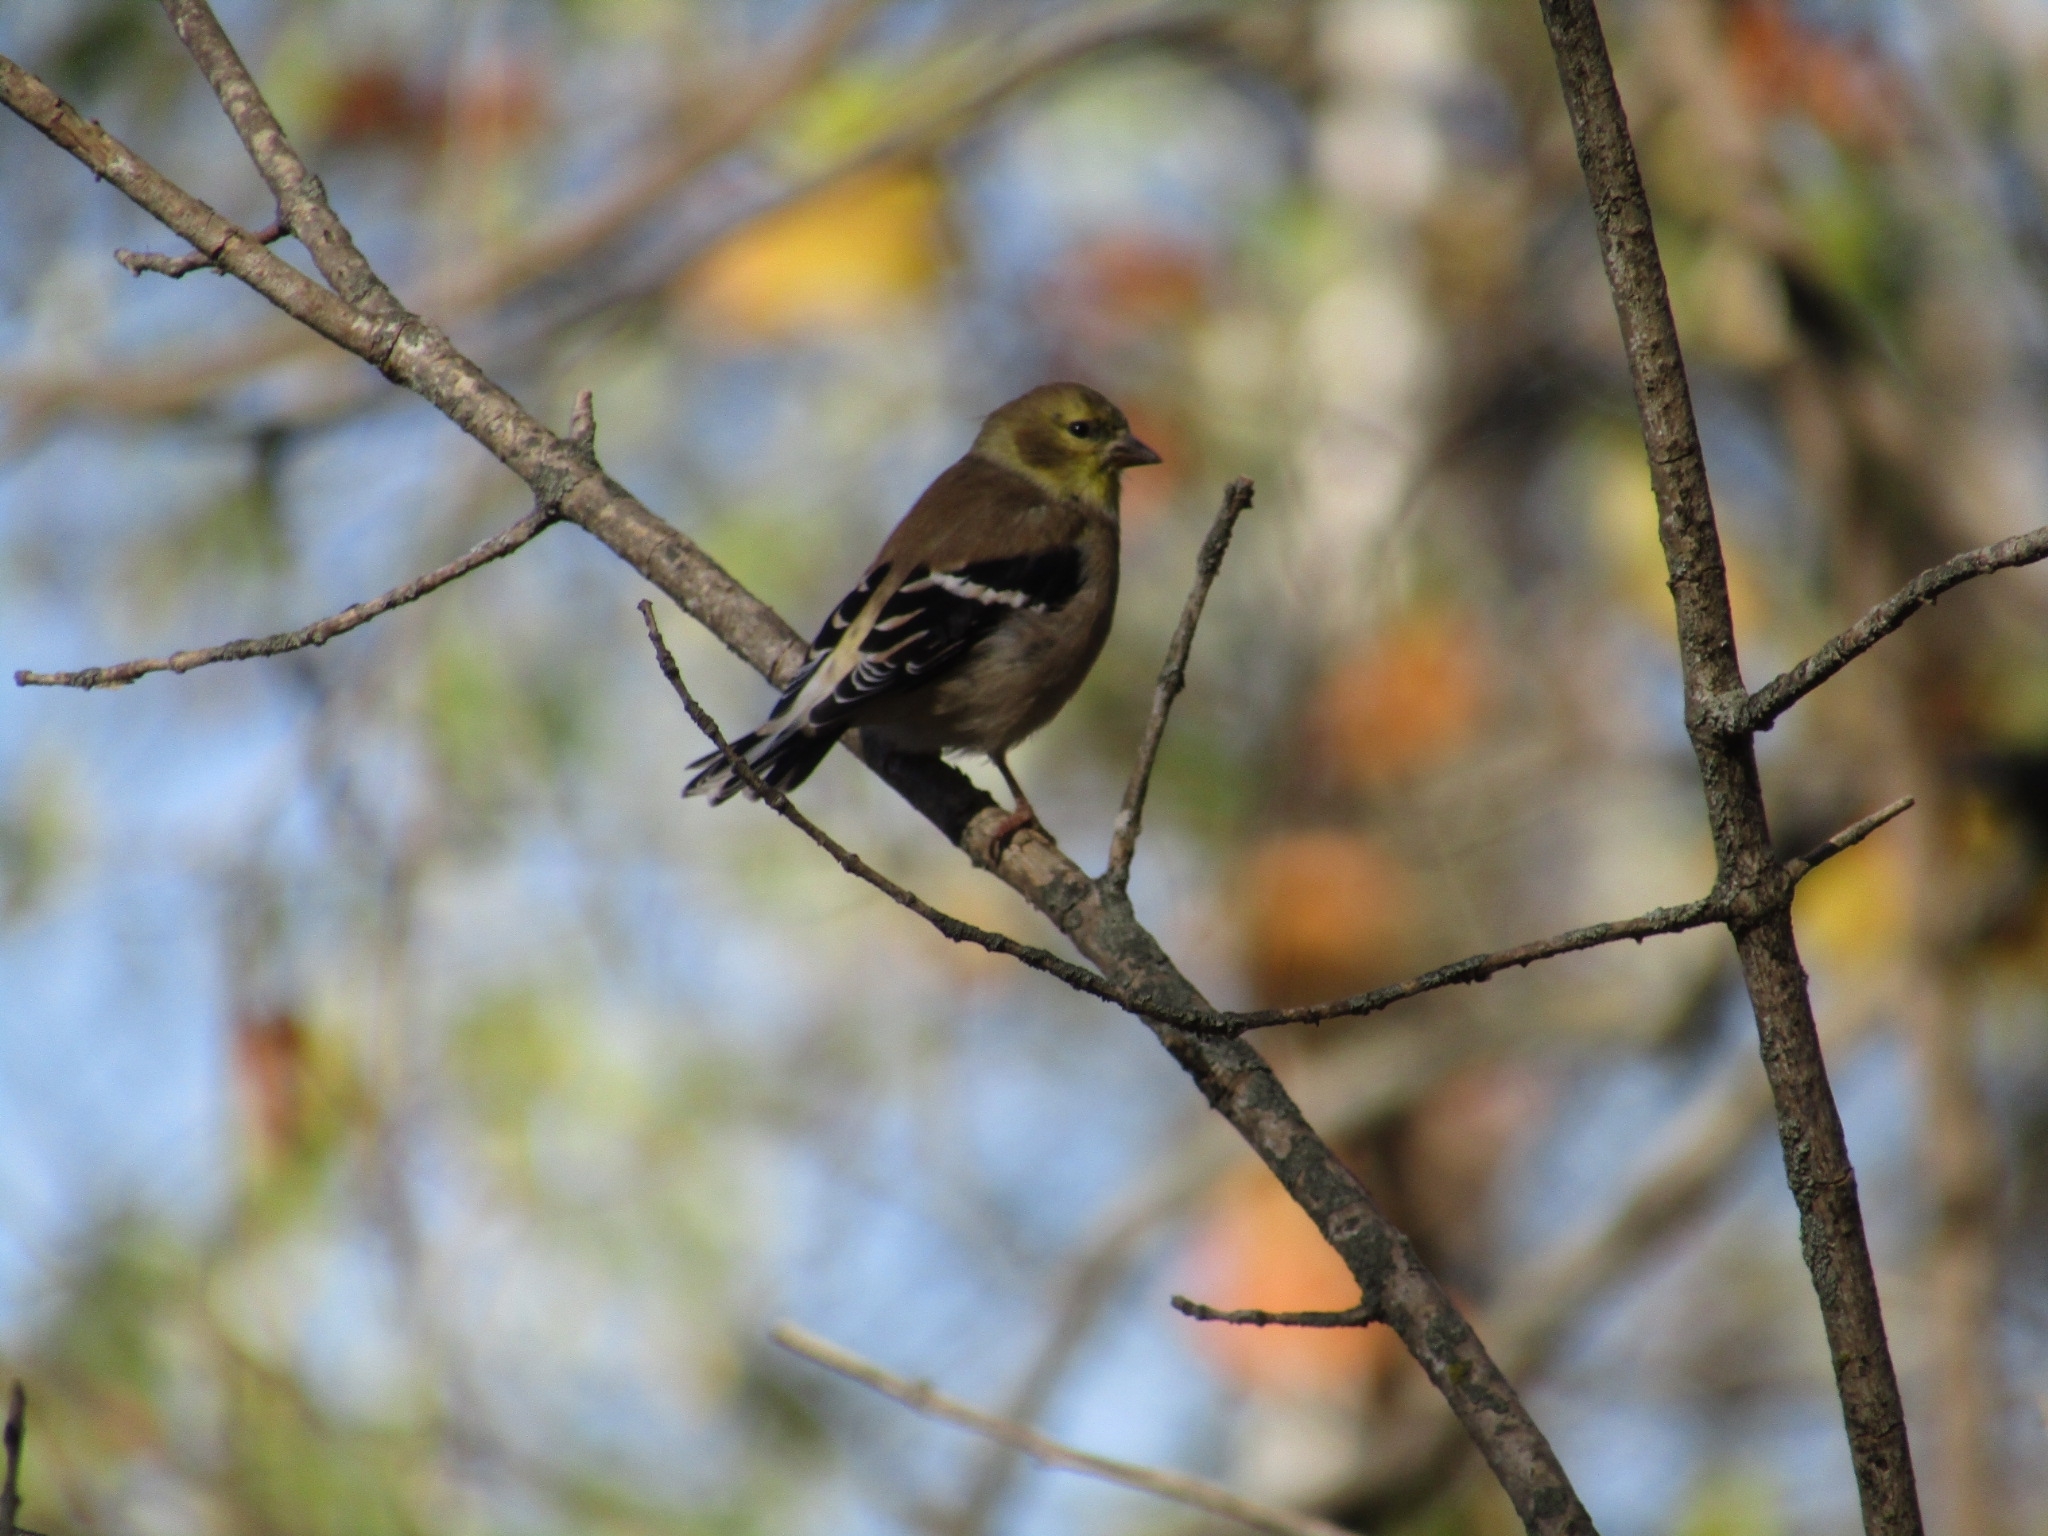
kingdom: Animalia
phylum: Chordata
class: Aves
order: Passeriformes
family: Fringillidae
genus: Spinus
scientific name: Spinus tristis
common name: American goldfinch
